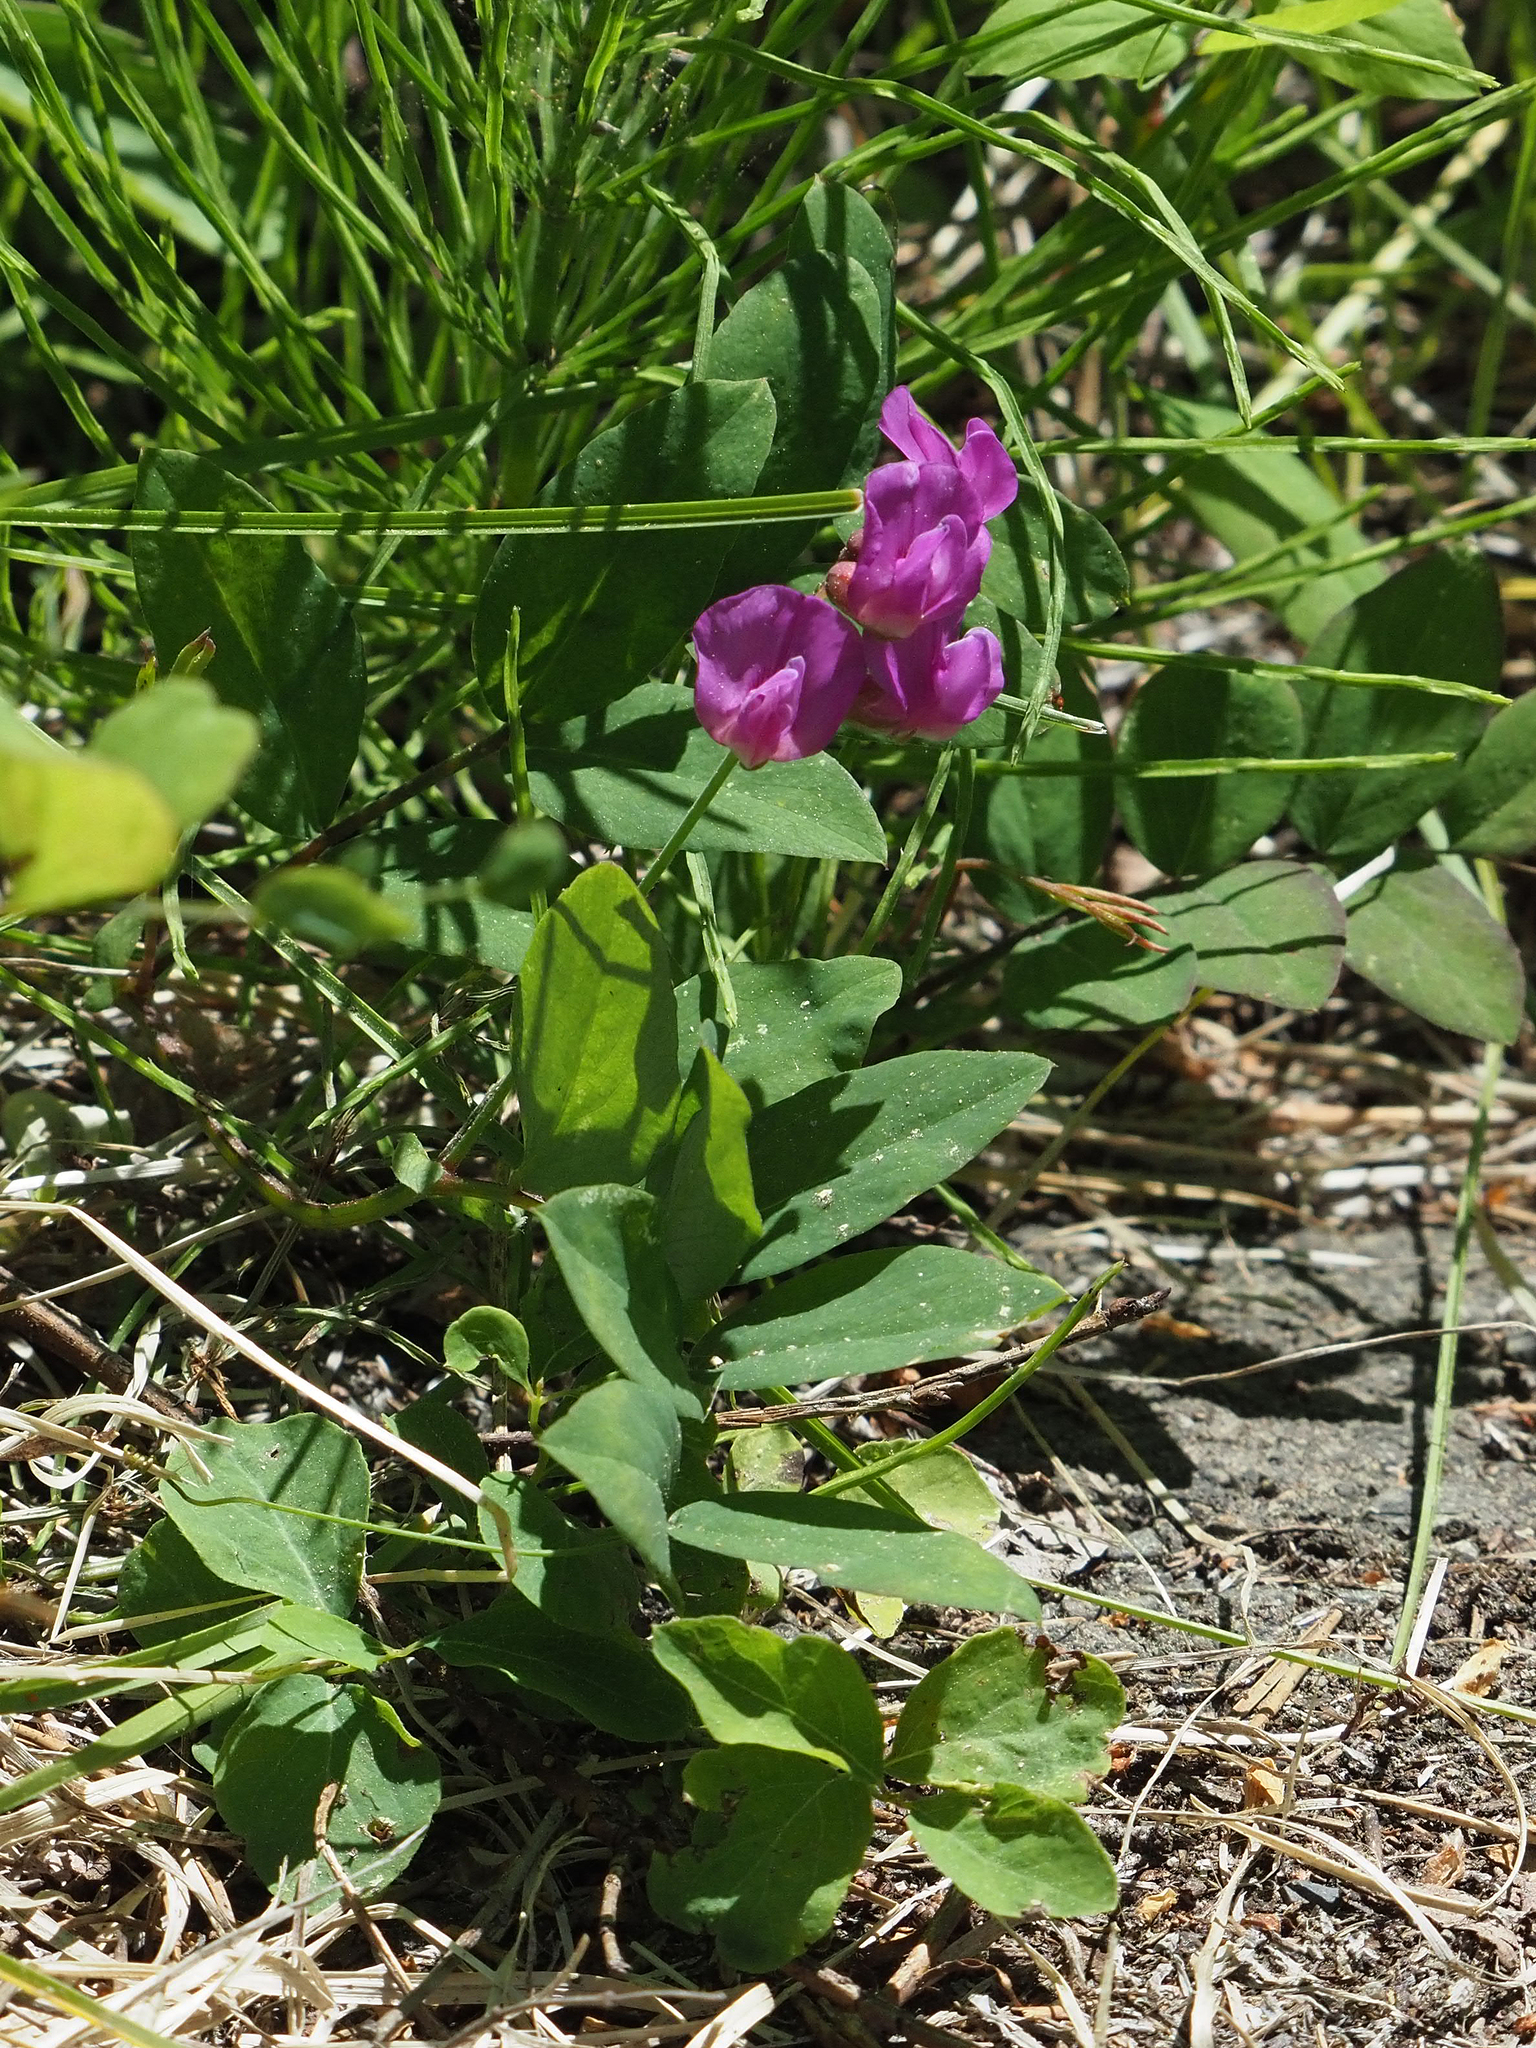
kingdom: Plantae
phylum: Tracheophyta
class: Magnoliopsida
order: Fabales
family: Fabaceae
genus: Lathyrus
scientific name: Lathyrus nevadensis
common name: Sierra nevada peavine
